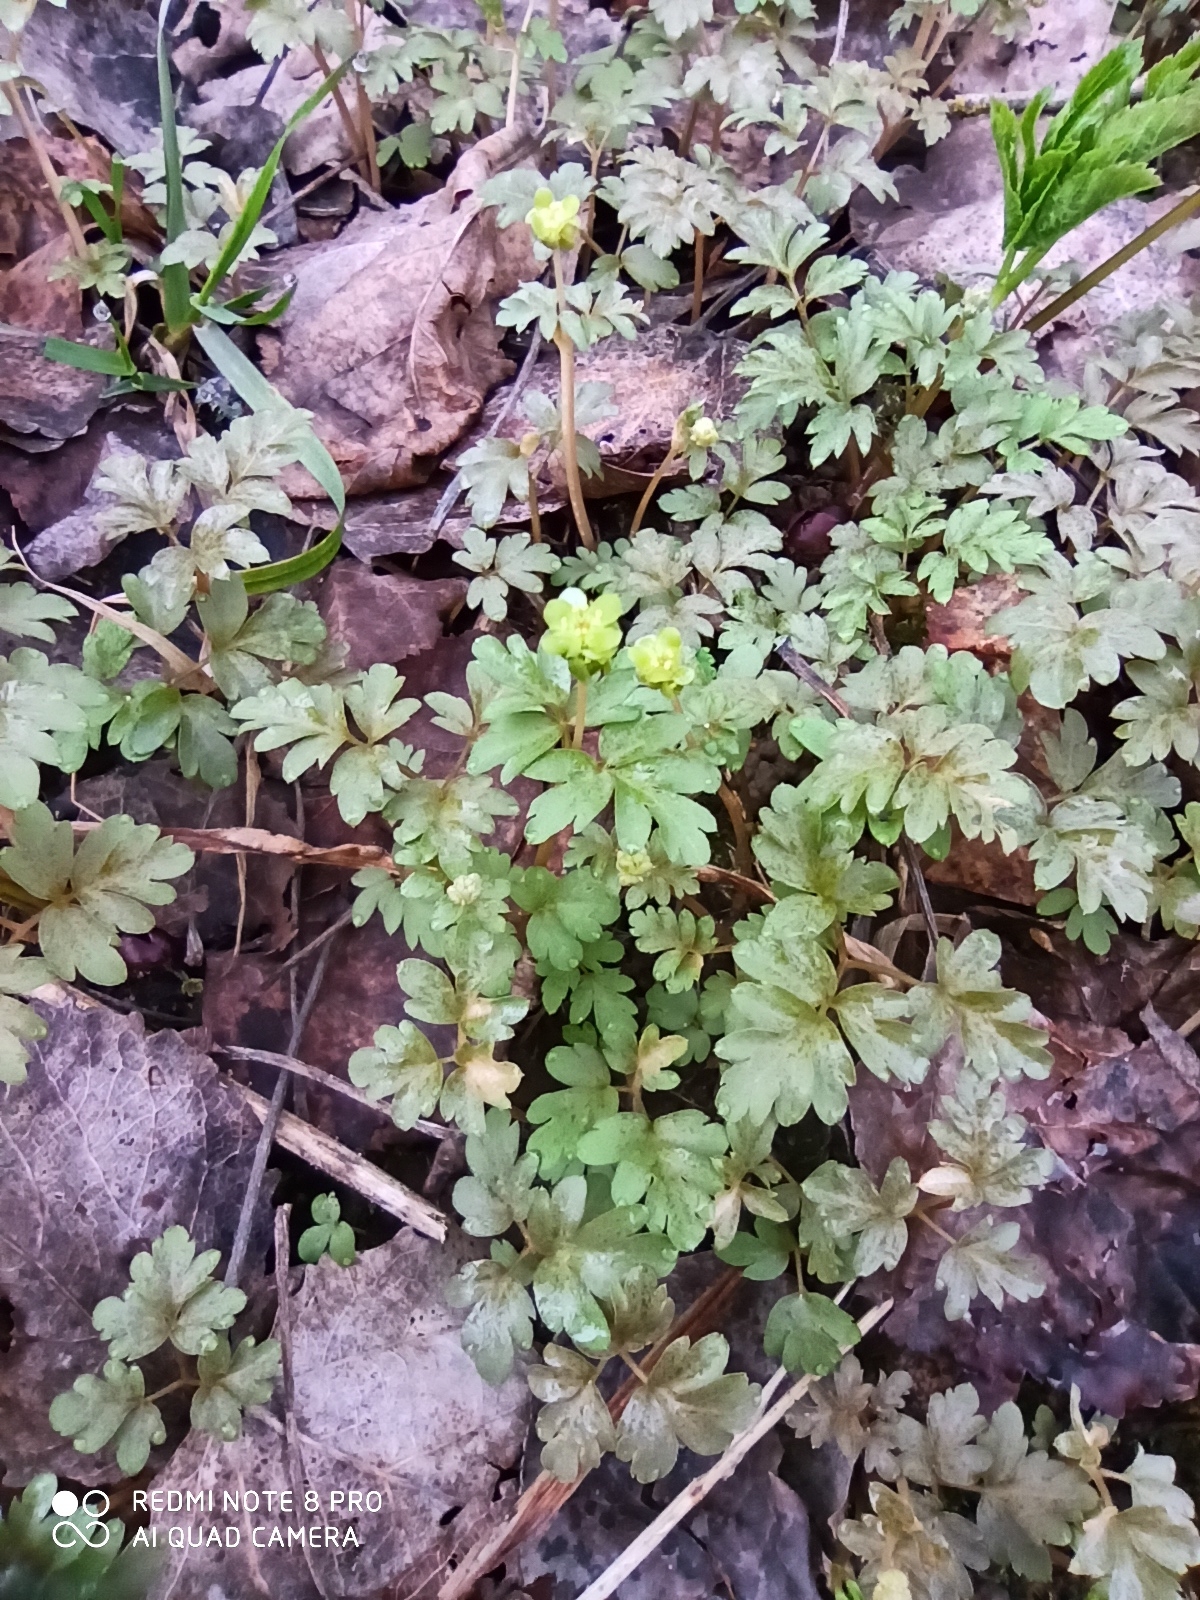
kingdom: Plantae
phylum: Tracheophyta
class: Magnoliopsida
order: Dipsacales
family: Viburnaceae
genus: Adoxa
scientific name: Adoxa moschatellina
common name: Moschatel
